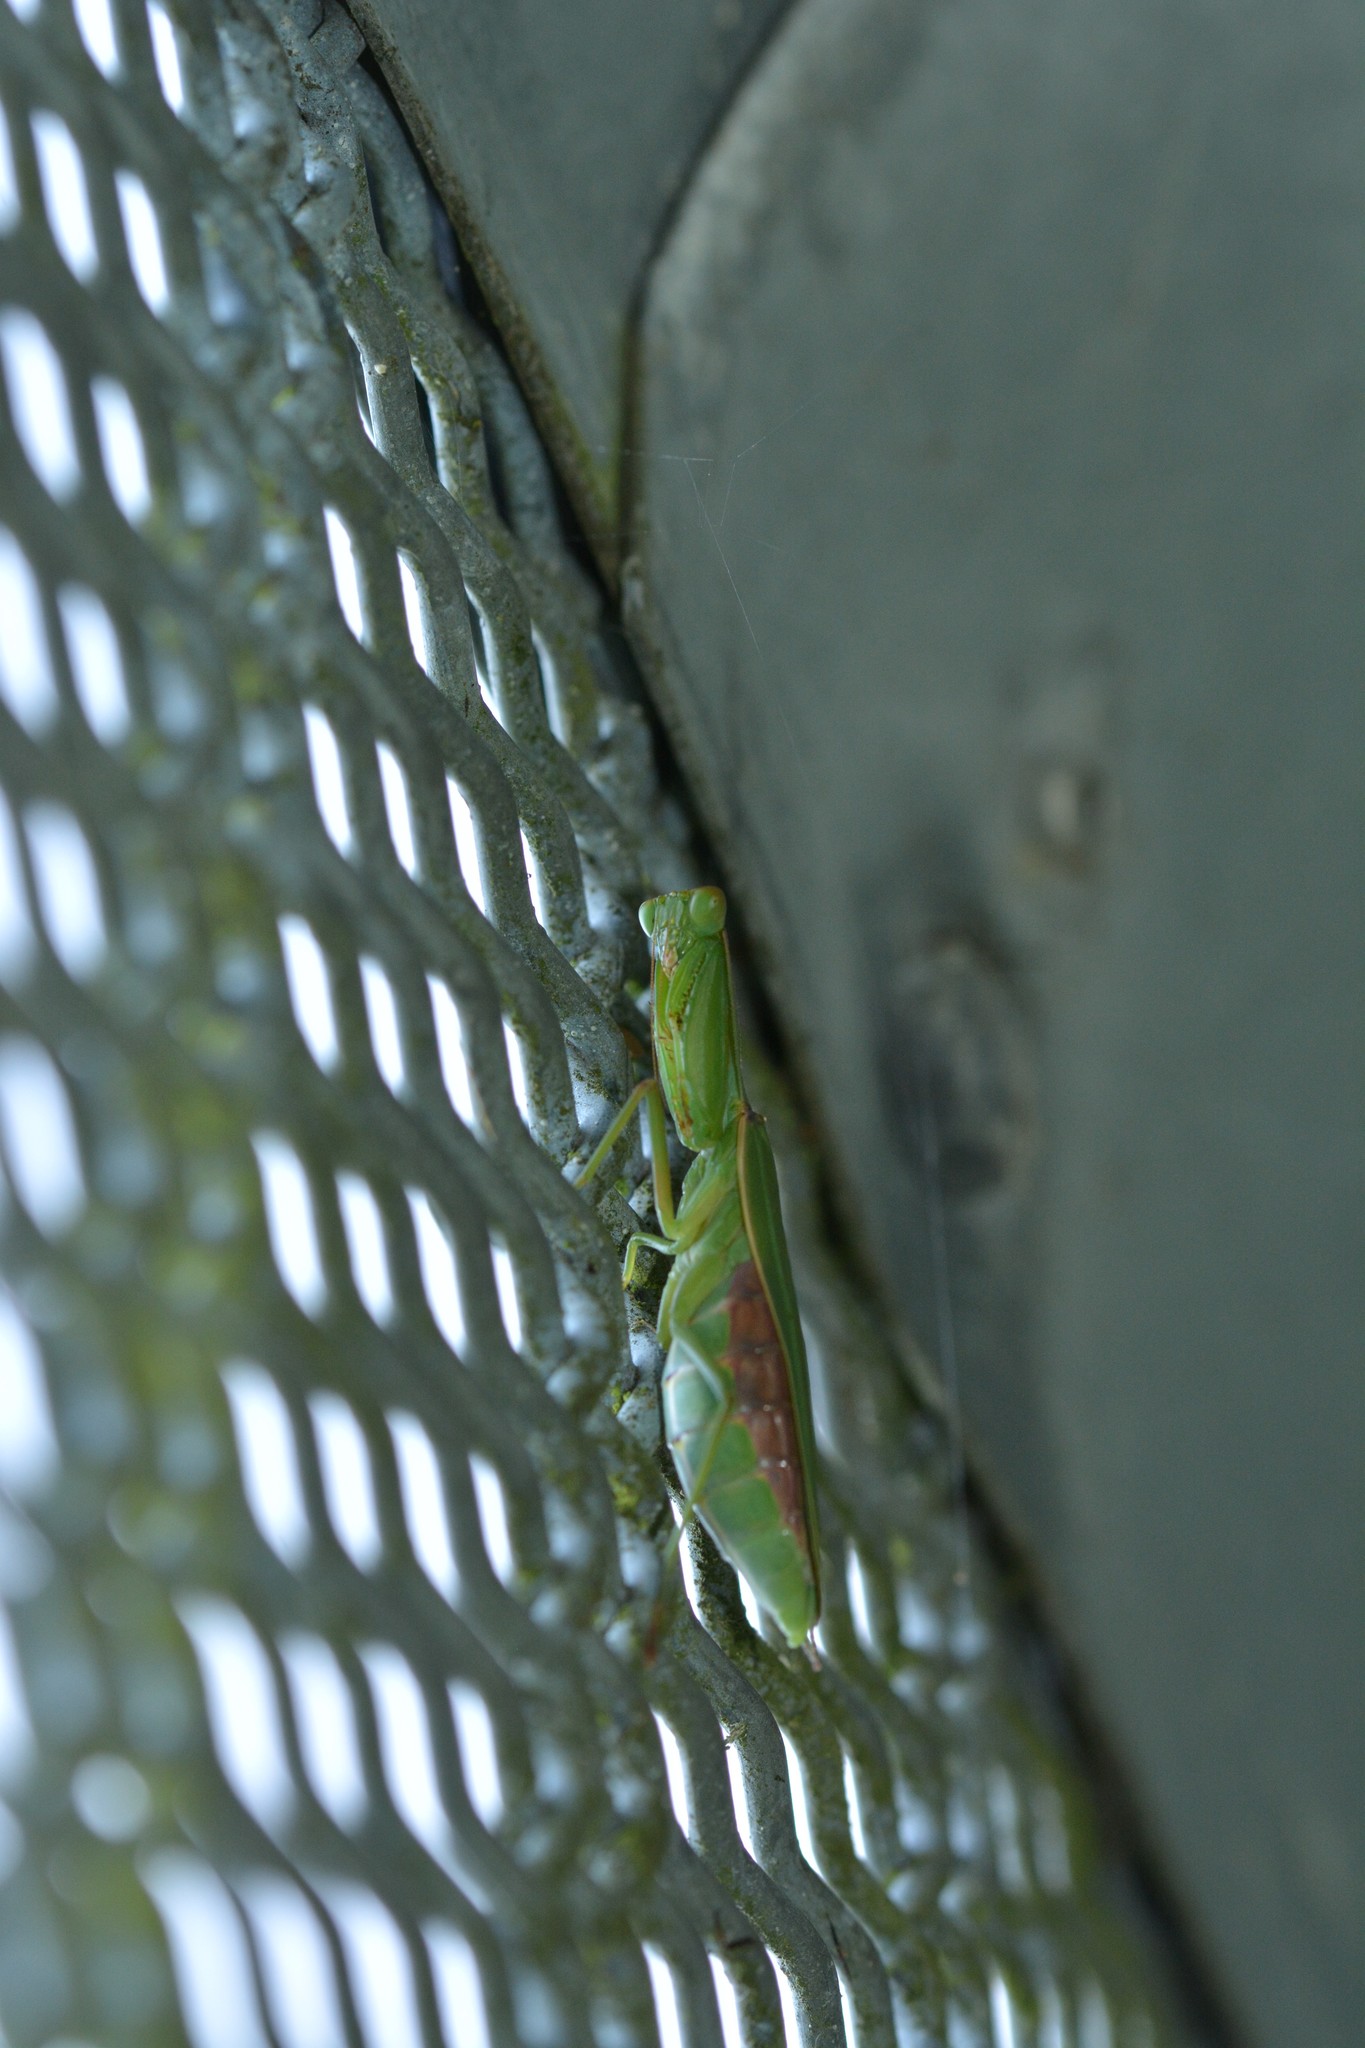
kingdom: Animalia
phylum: Arthropoda
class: Insecta
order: Mantodea
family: Mantidae
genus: Orthodera
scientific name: Orthodera novaezealandiae
